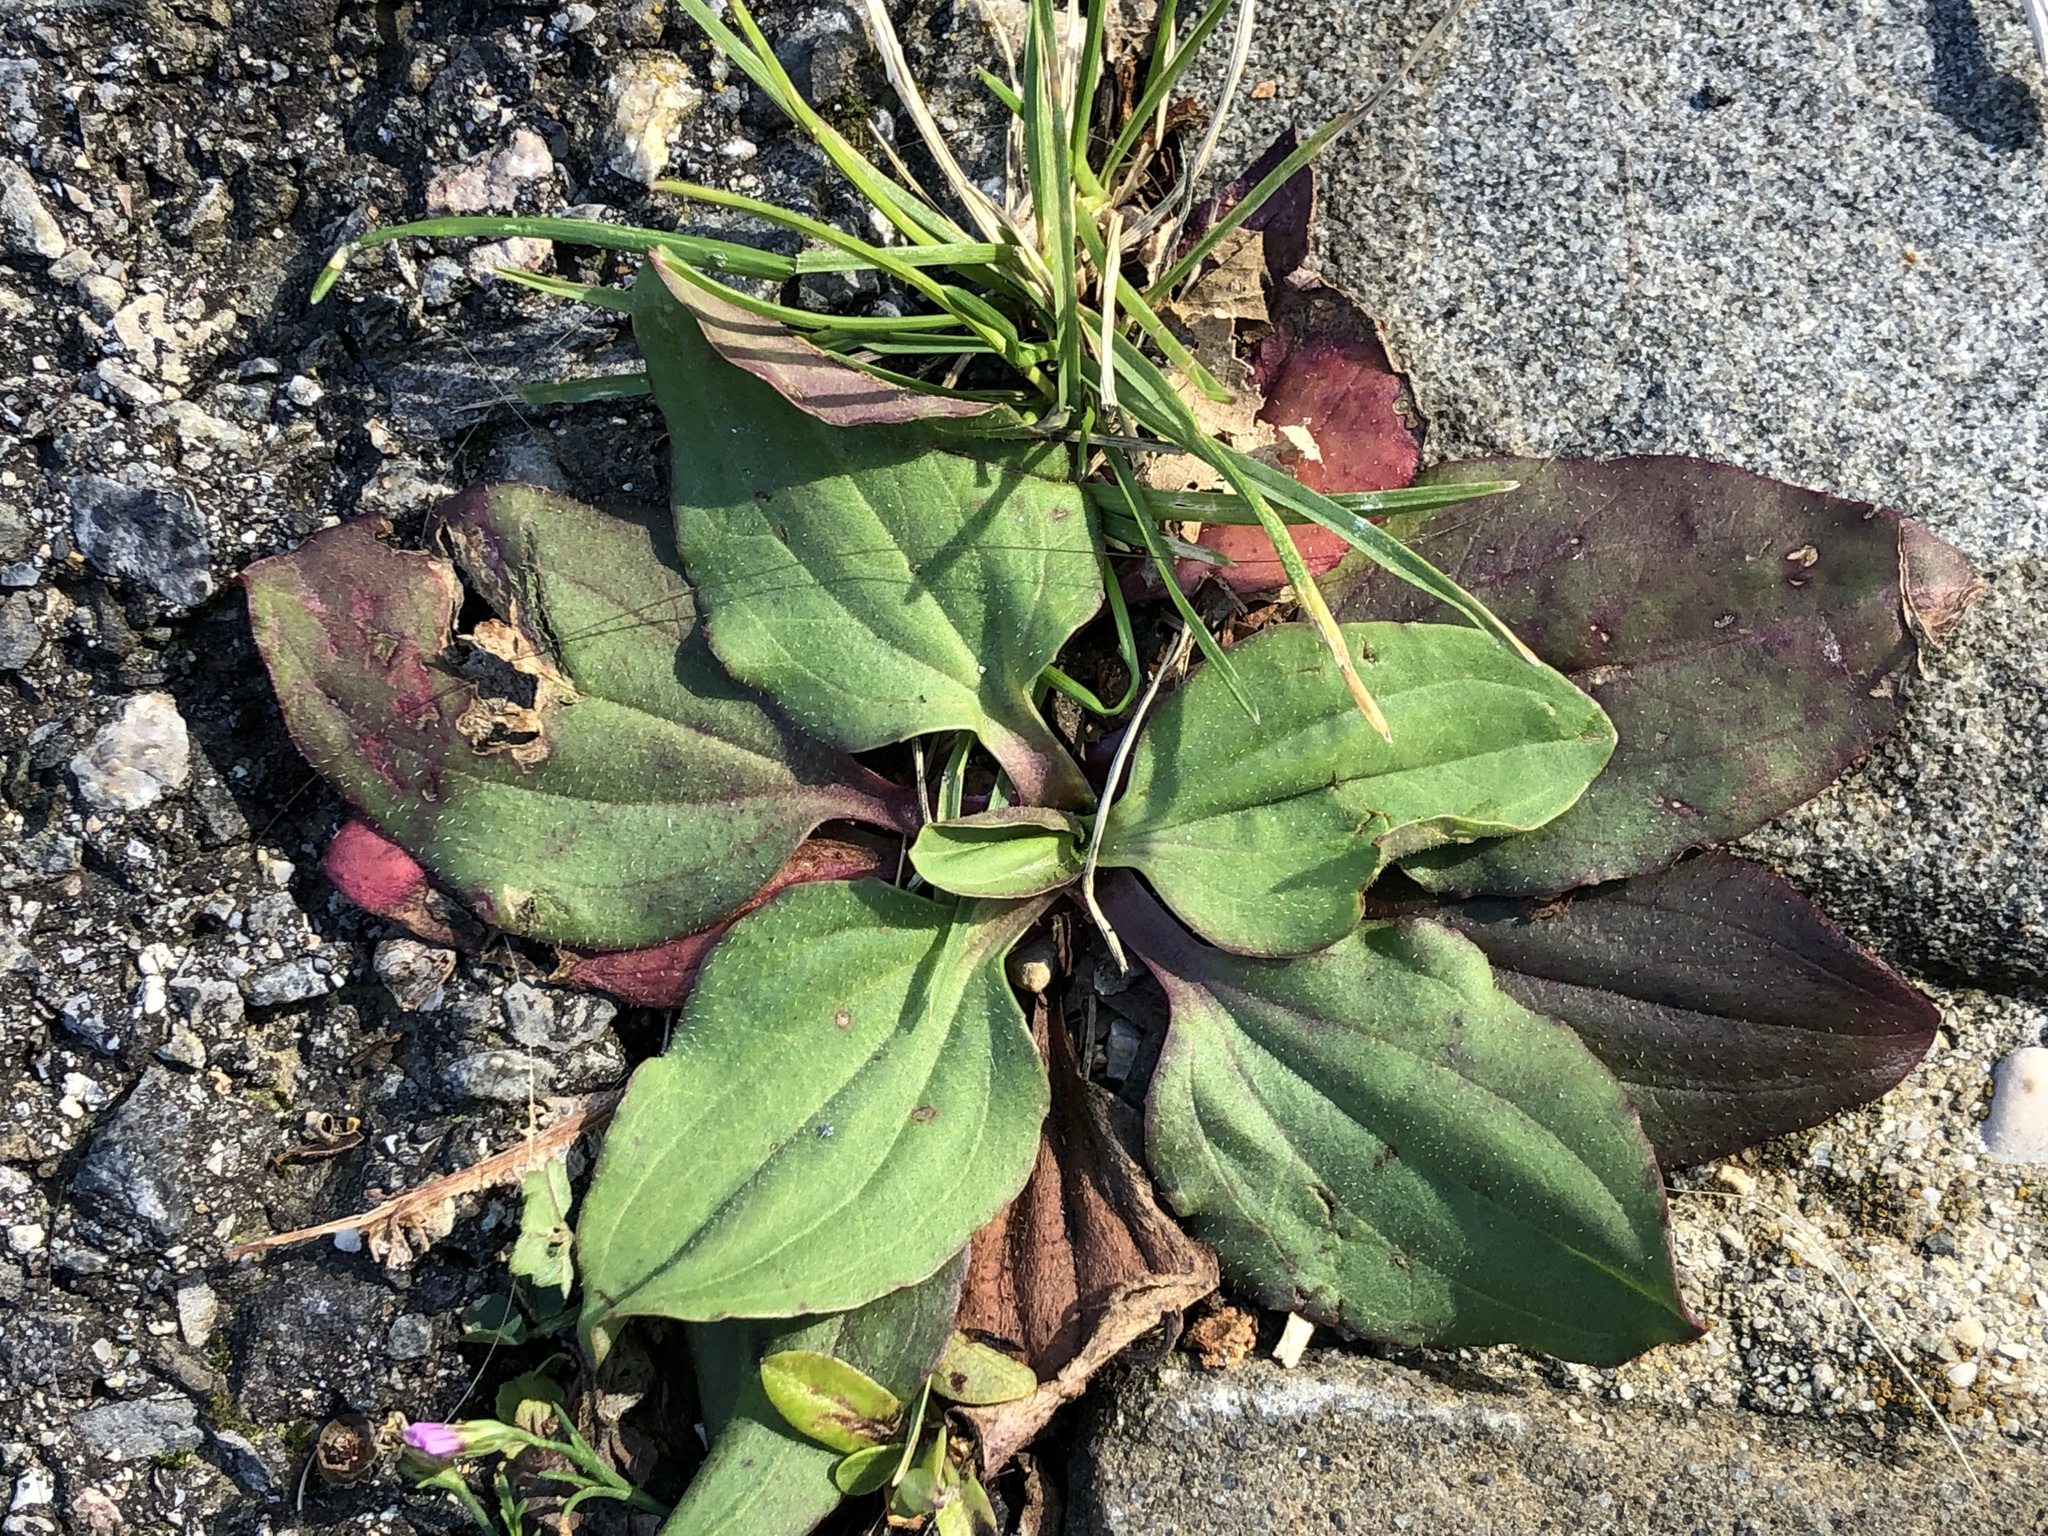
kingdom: Plantae
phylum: Tracheophyta
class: Magnoliopsida
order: Lamiales
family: Plantaginaceae
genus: Plantago
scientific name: Plantago major
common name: Common plantain
